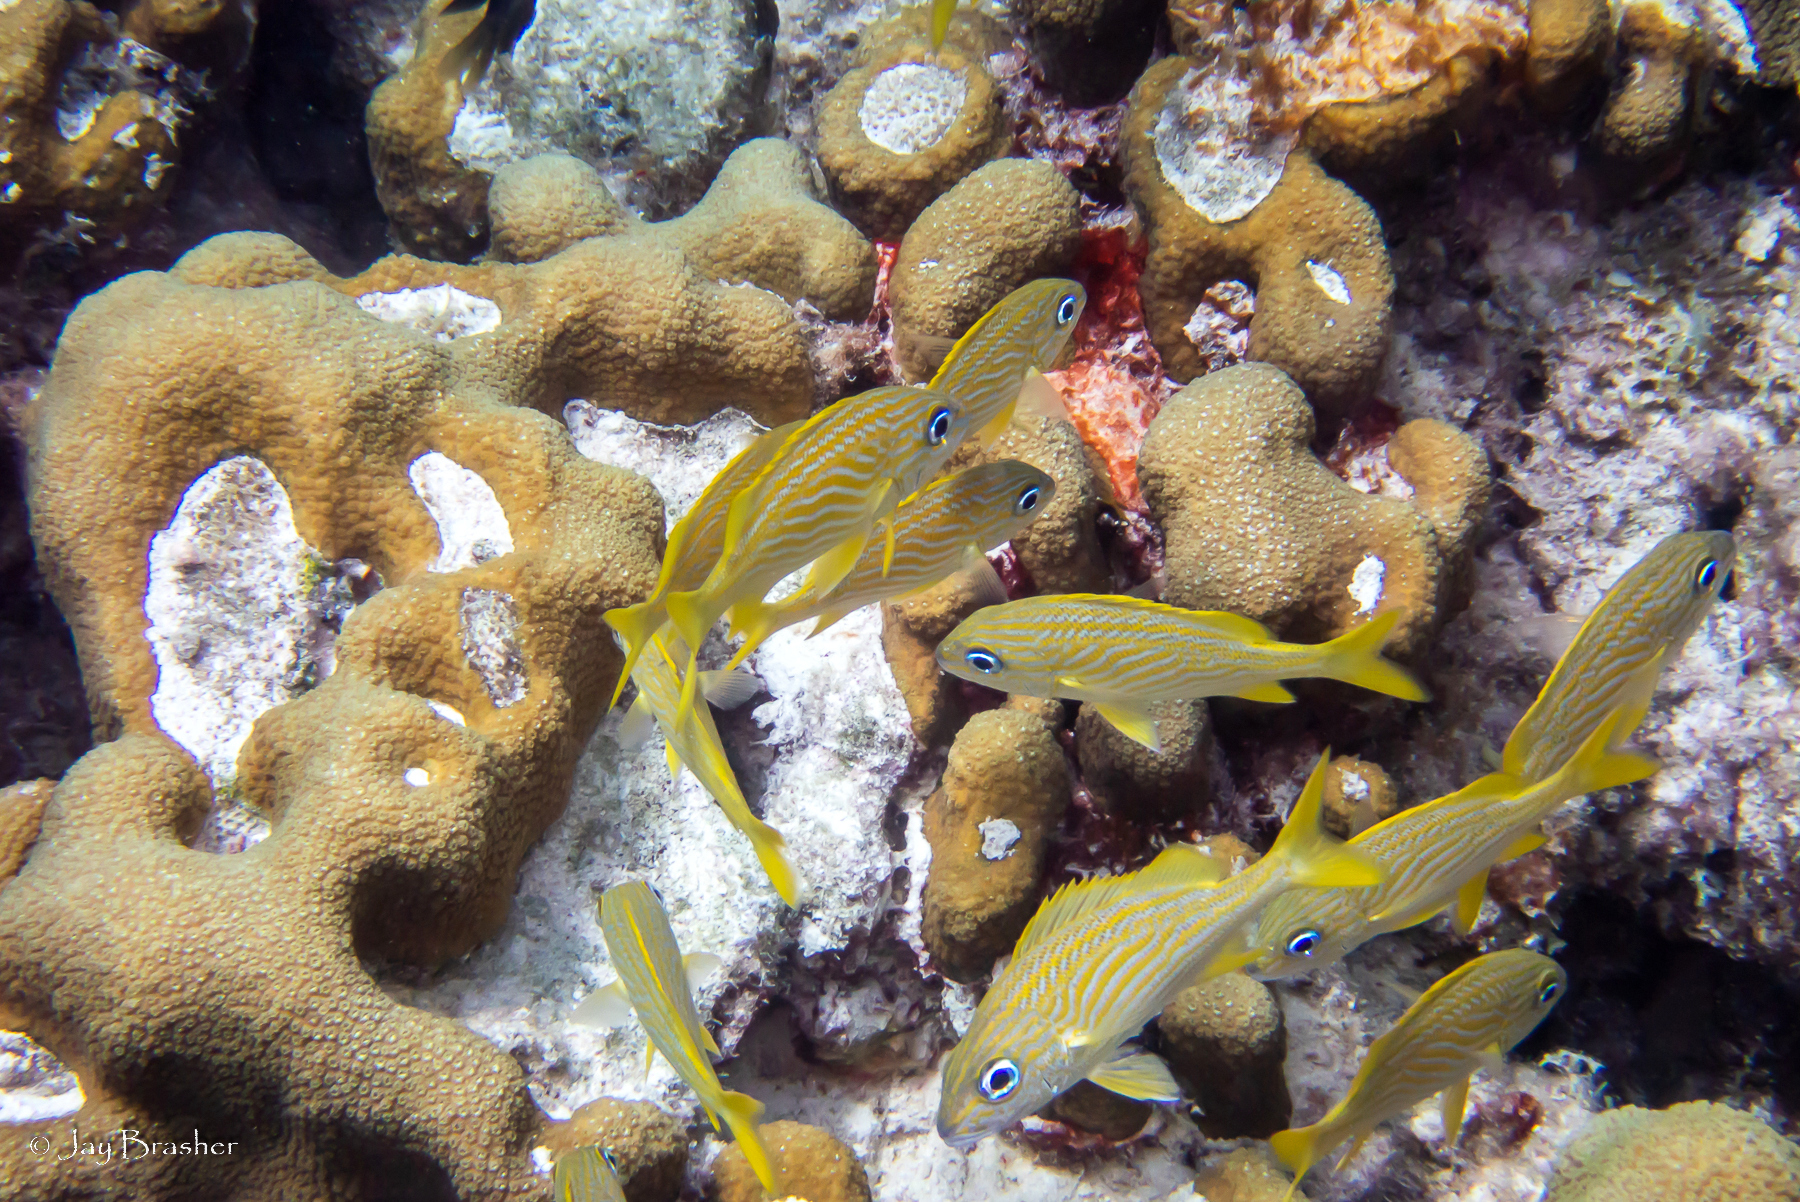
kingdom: Animalia
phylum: Cnidaria
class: Anthozoa
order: Scleractinia
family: Merulinidae
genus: Orbicella
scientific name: Orbicella annularis
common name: Boulder star coral
